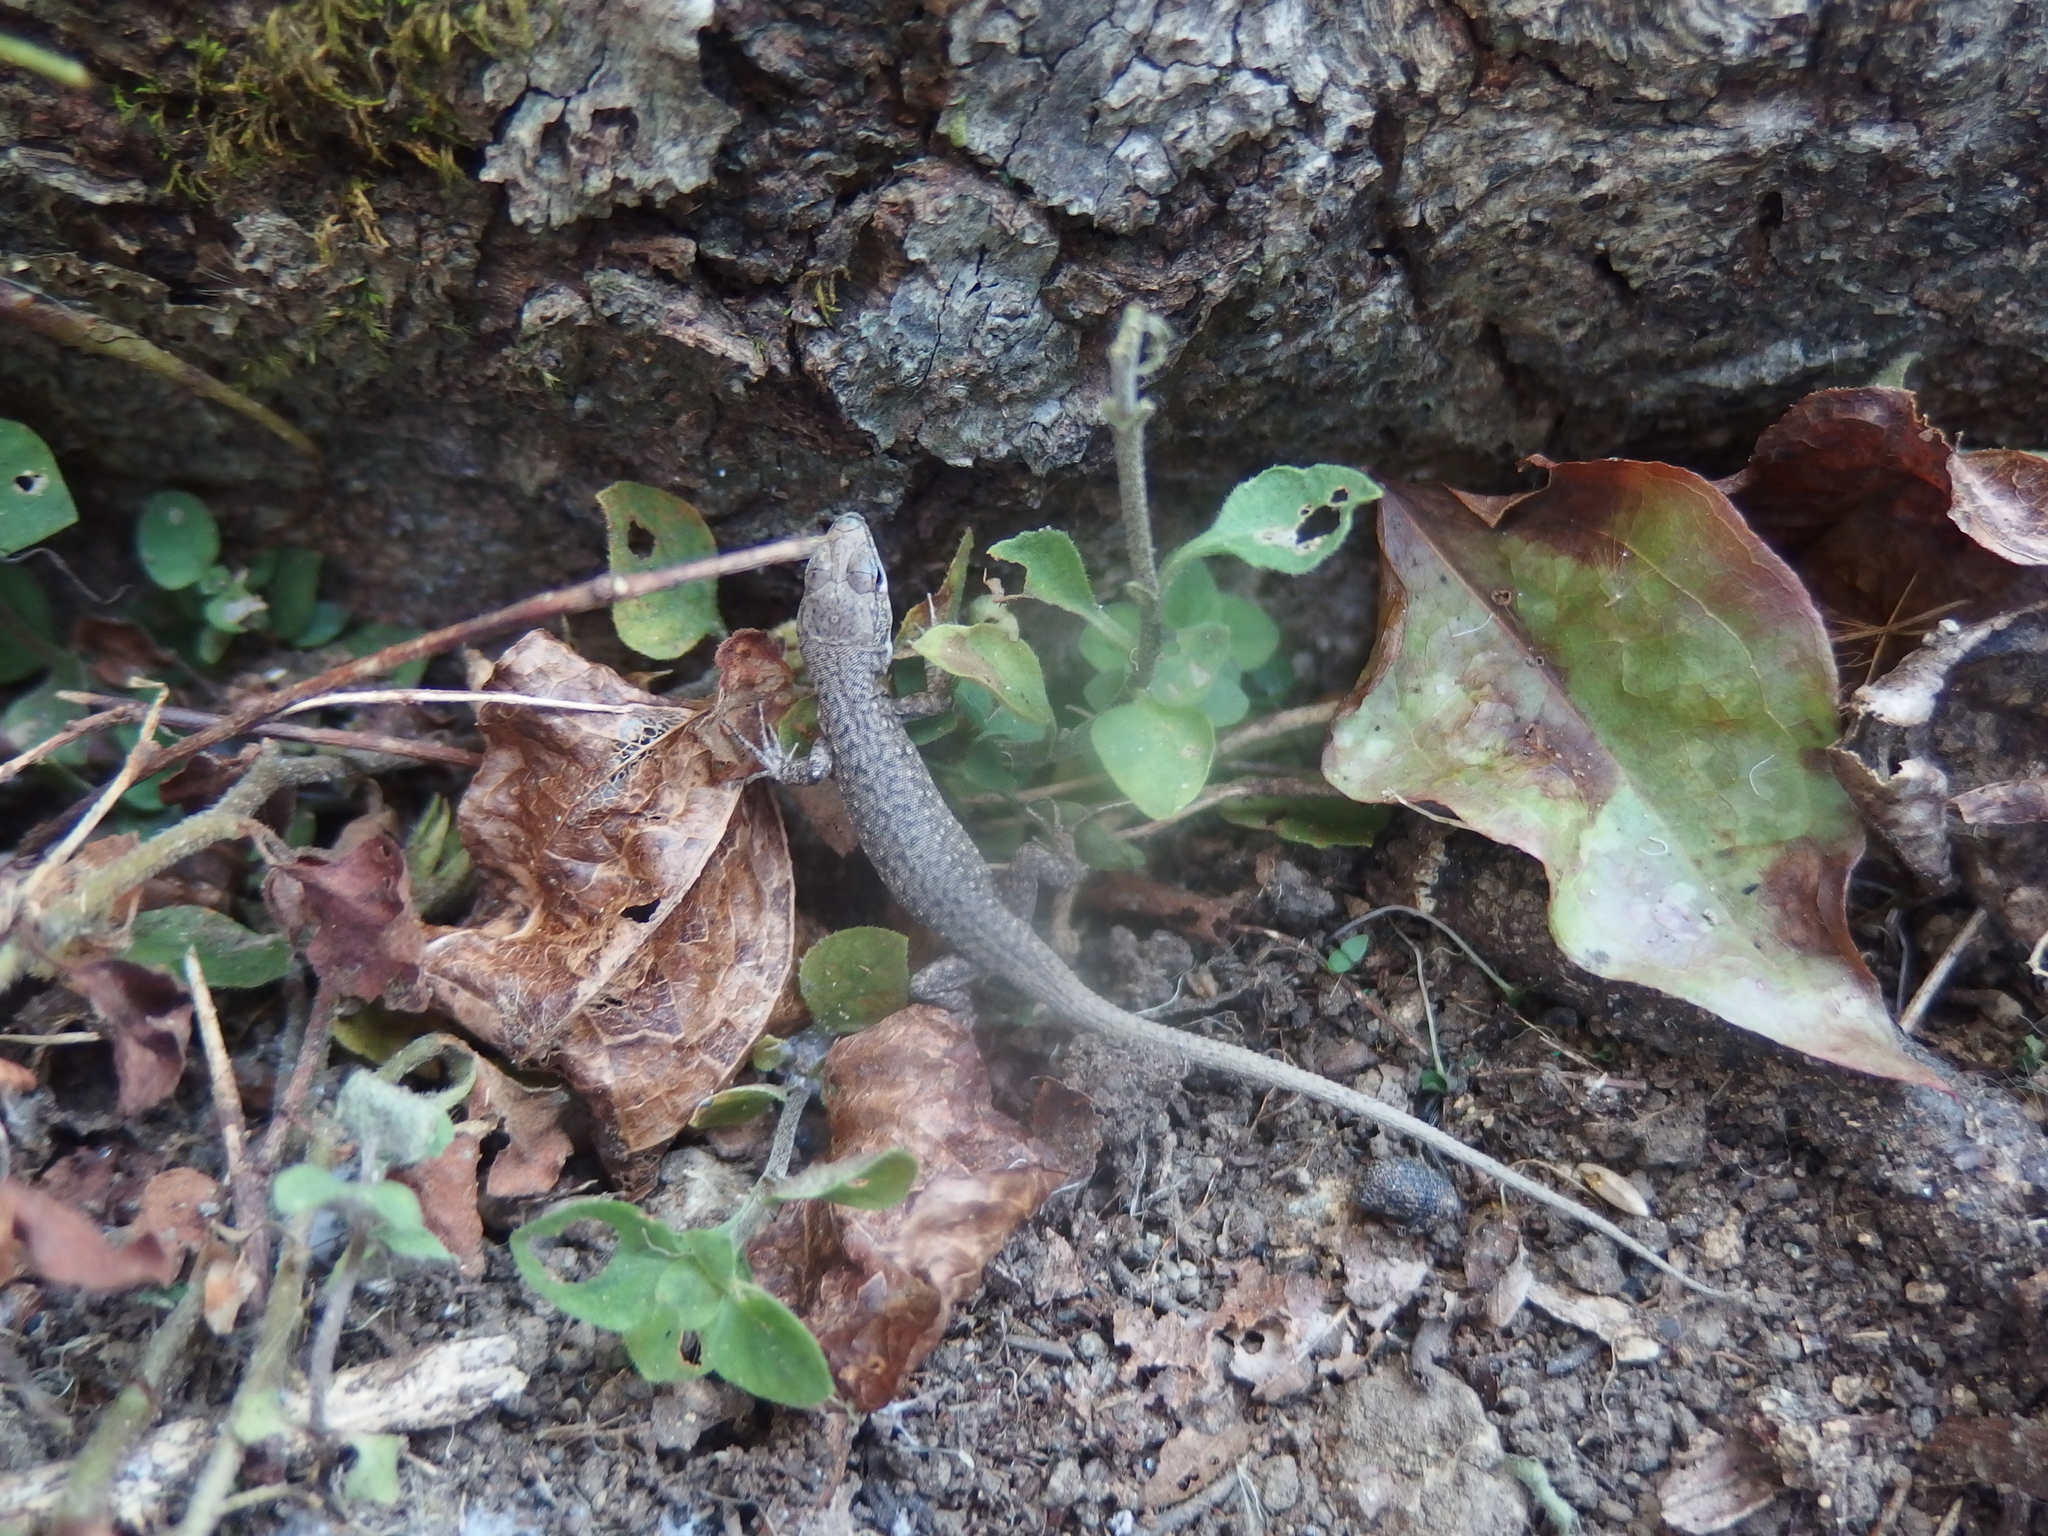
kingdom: Animalia
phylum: Chordata
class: Squamata
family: Lacertidae
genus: Darevskia
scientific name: Darevskia rudis
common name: Spiny-tailed lizard
